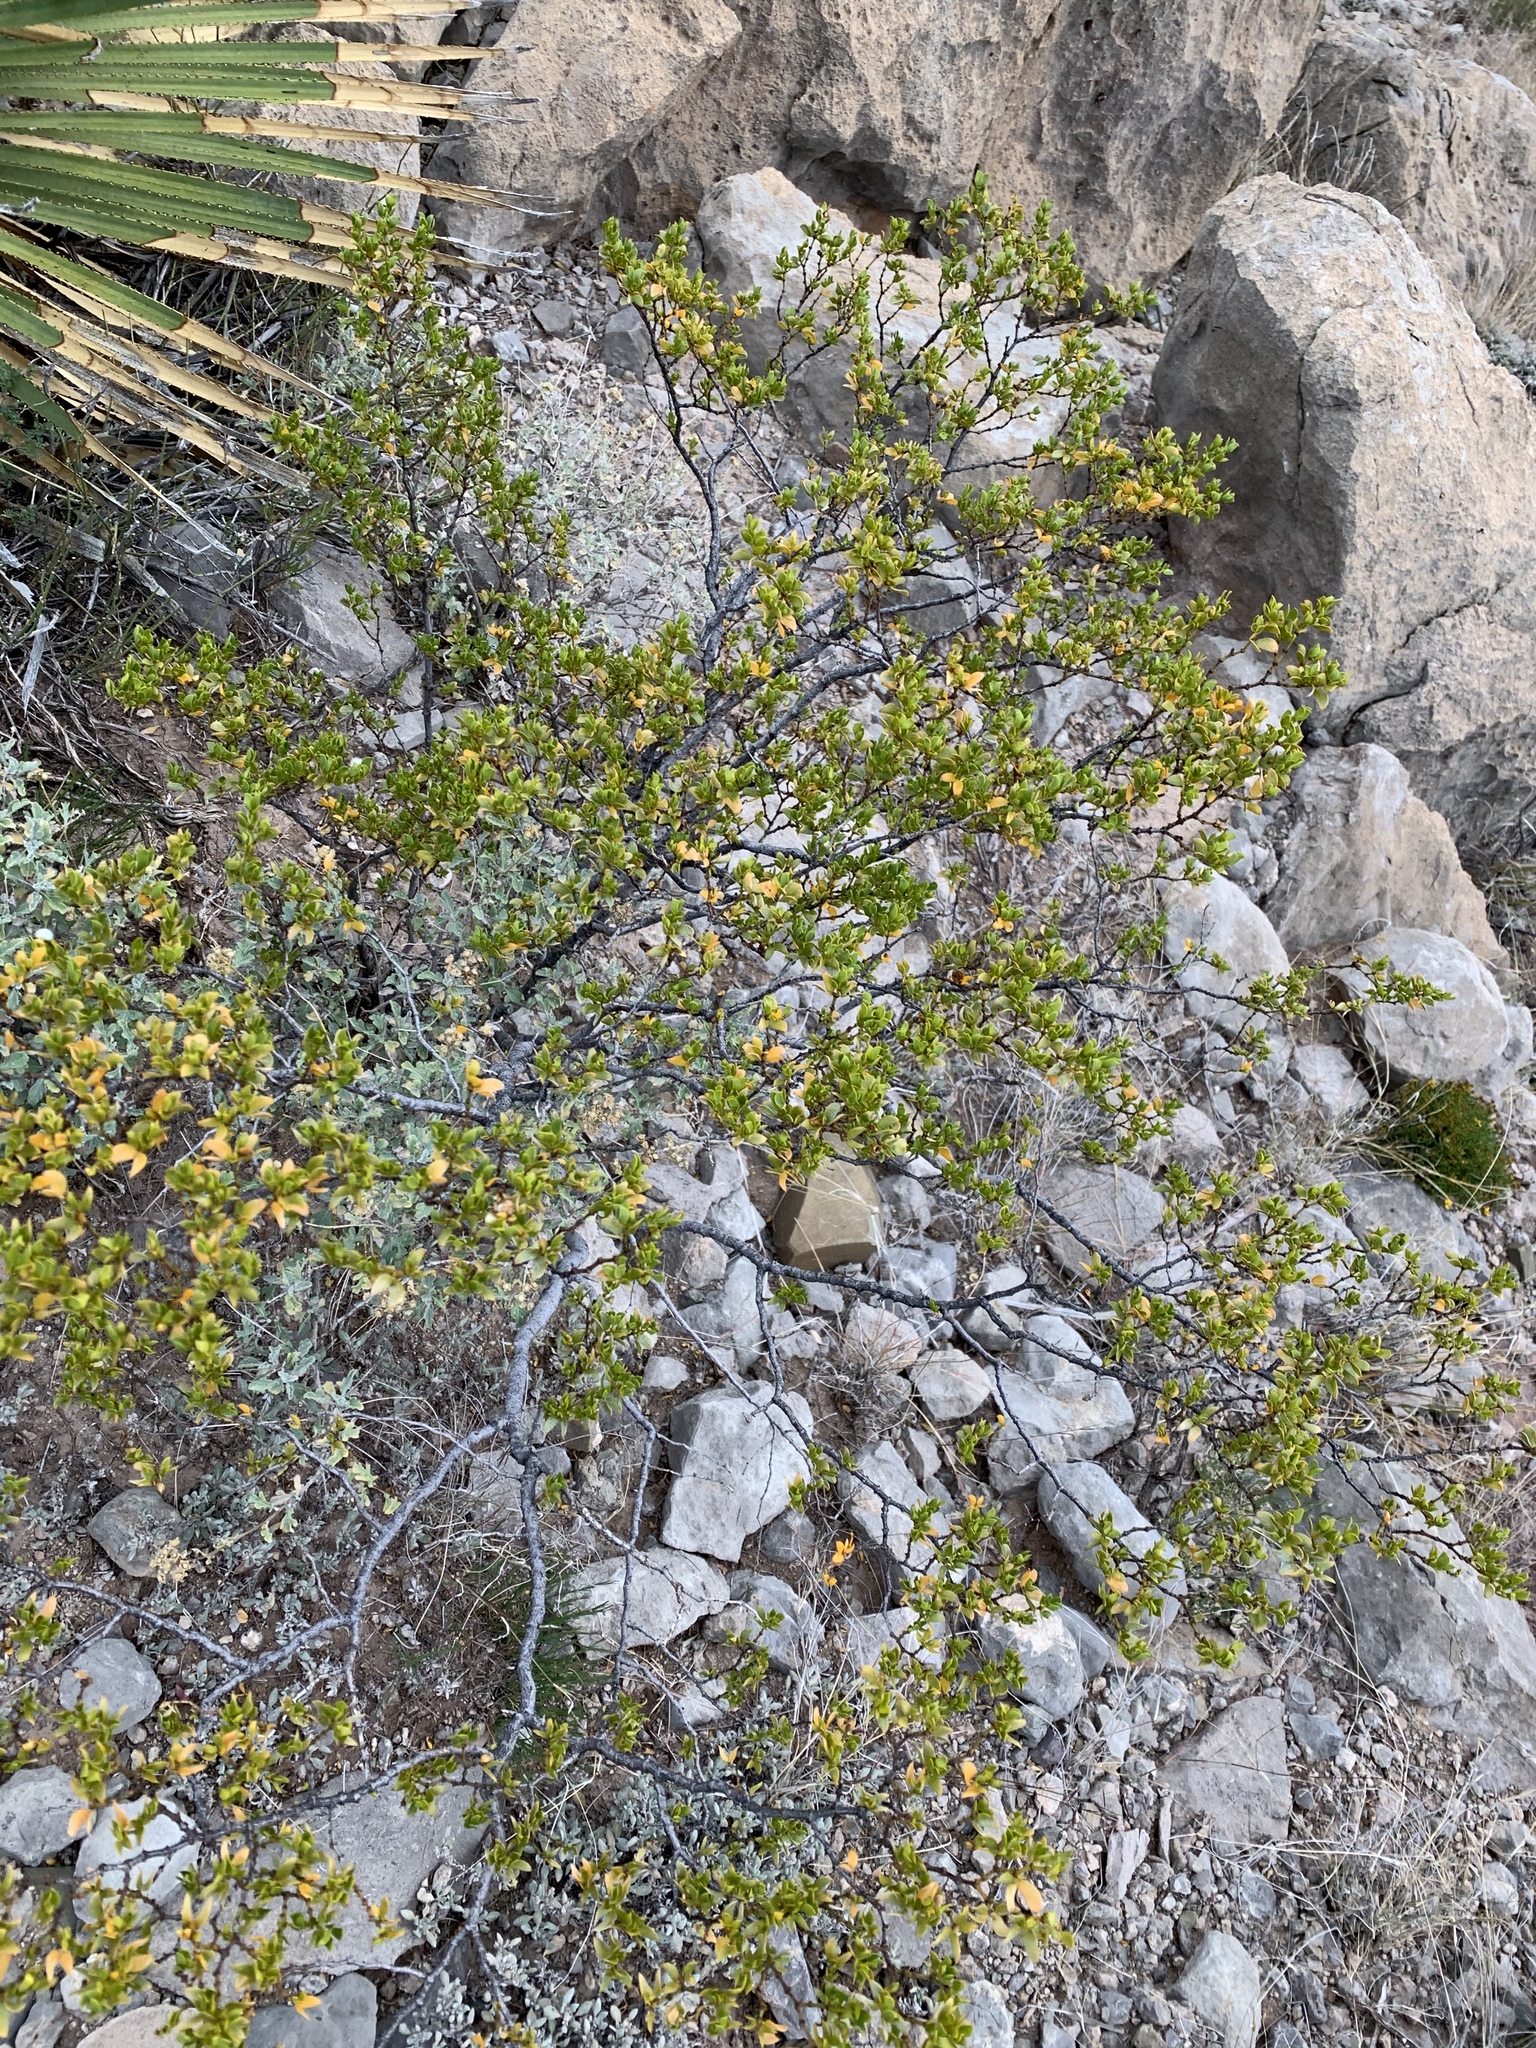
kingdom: Plantae
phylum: Tracheophyta
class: Magnoliopsida
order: Zygophyllales
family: Zygophyllaceae
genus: Larrea
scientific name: Larrea tridentata
